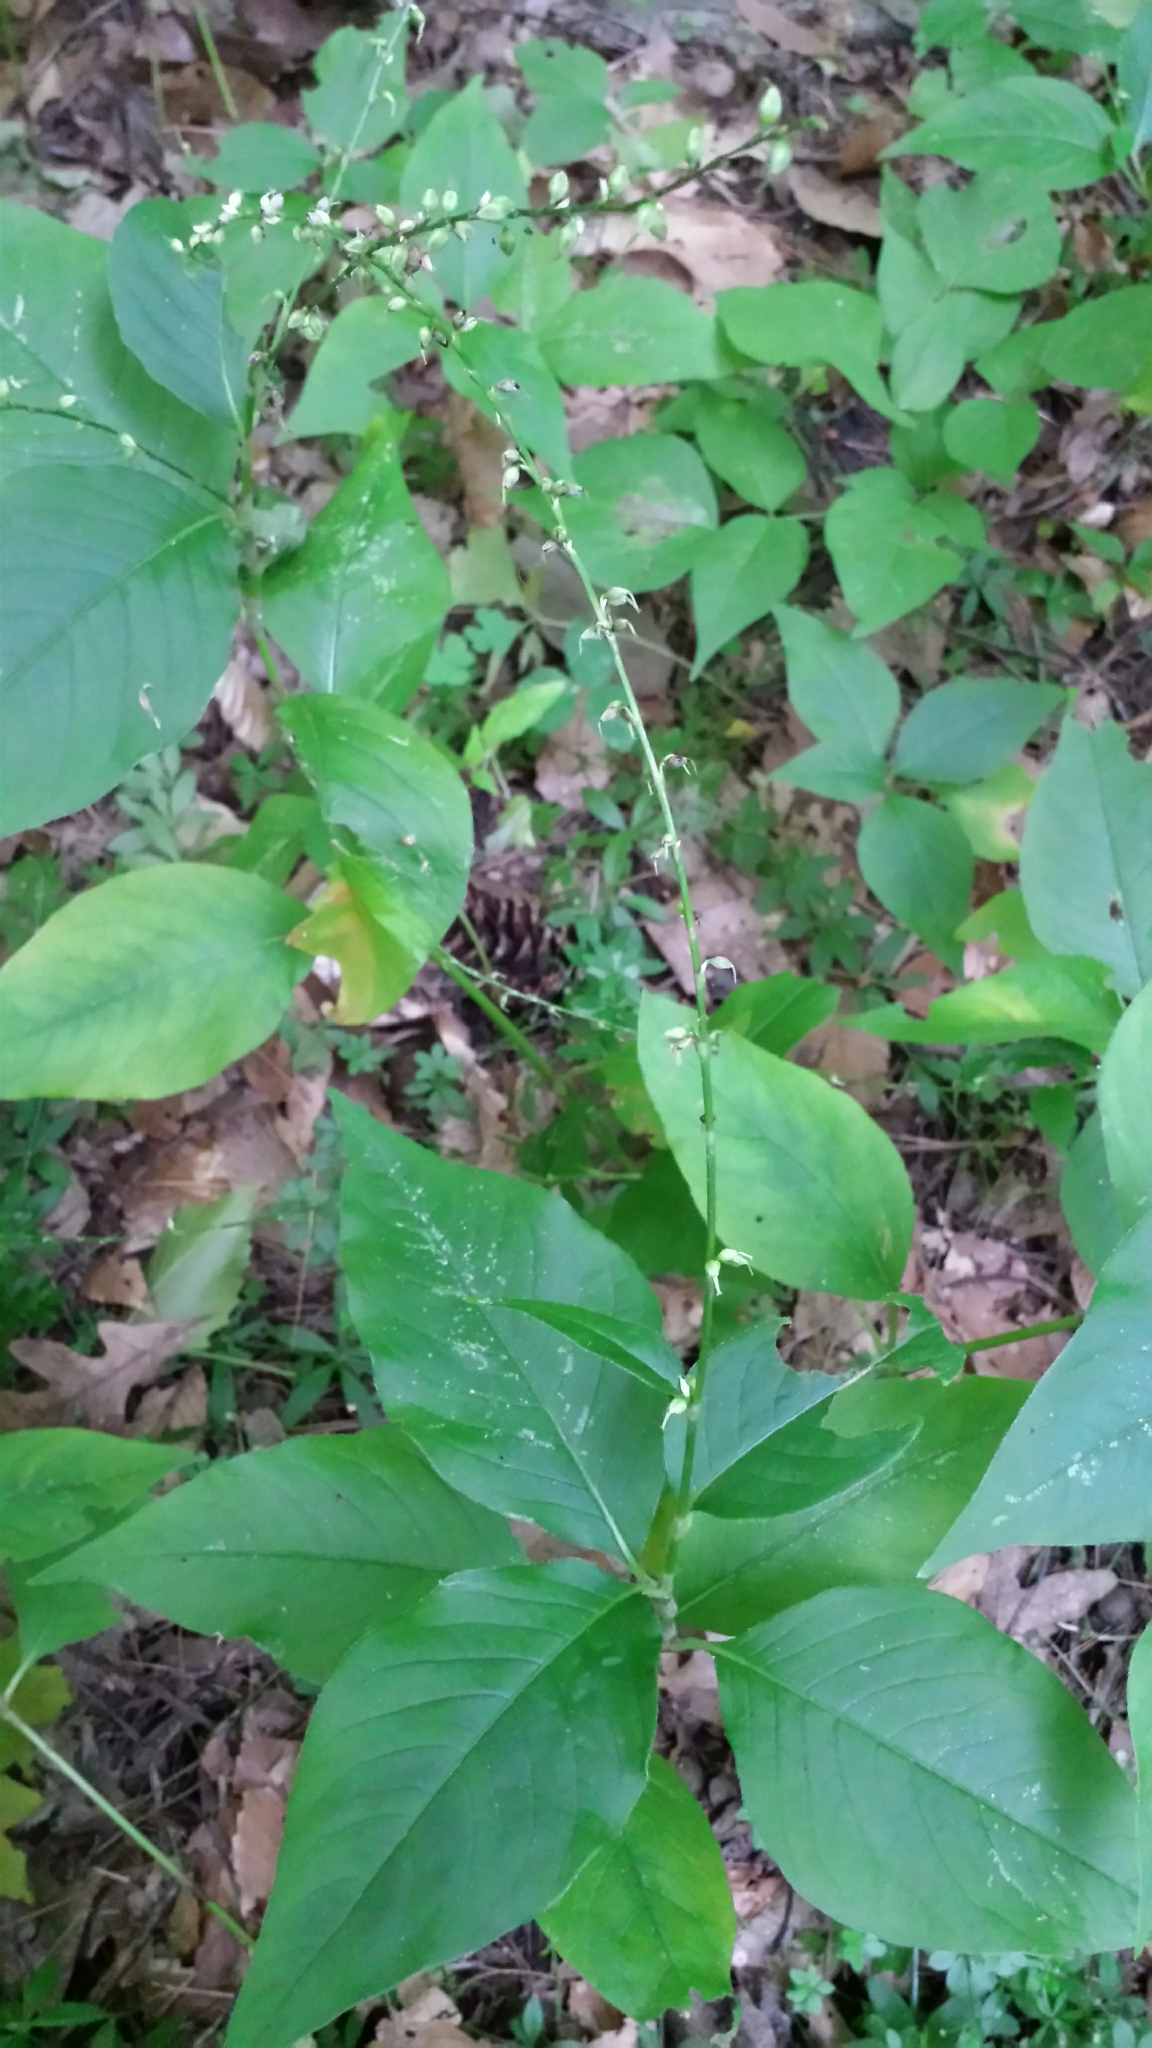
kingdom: Plantae
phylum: Tracheophyta
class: Magnoliopsida
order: Caryophyllales
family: Polygonaceae
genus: Persicaria
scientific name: Persicaria virginiana
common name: Jumpseed
